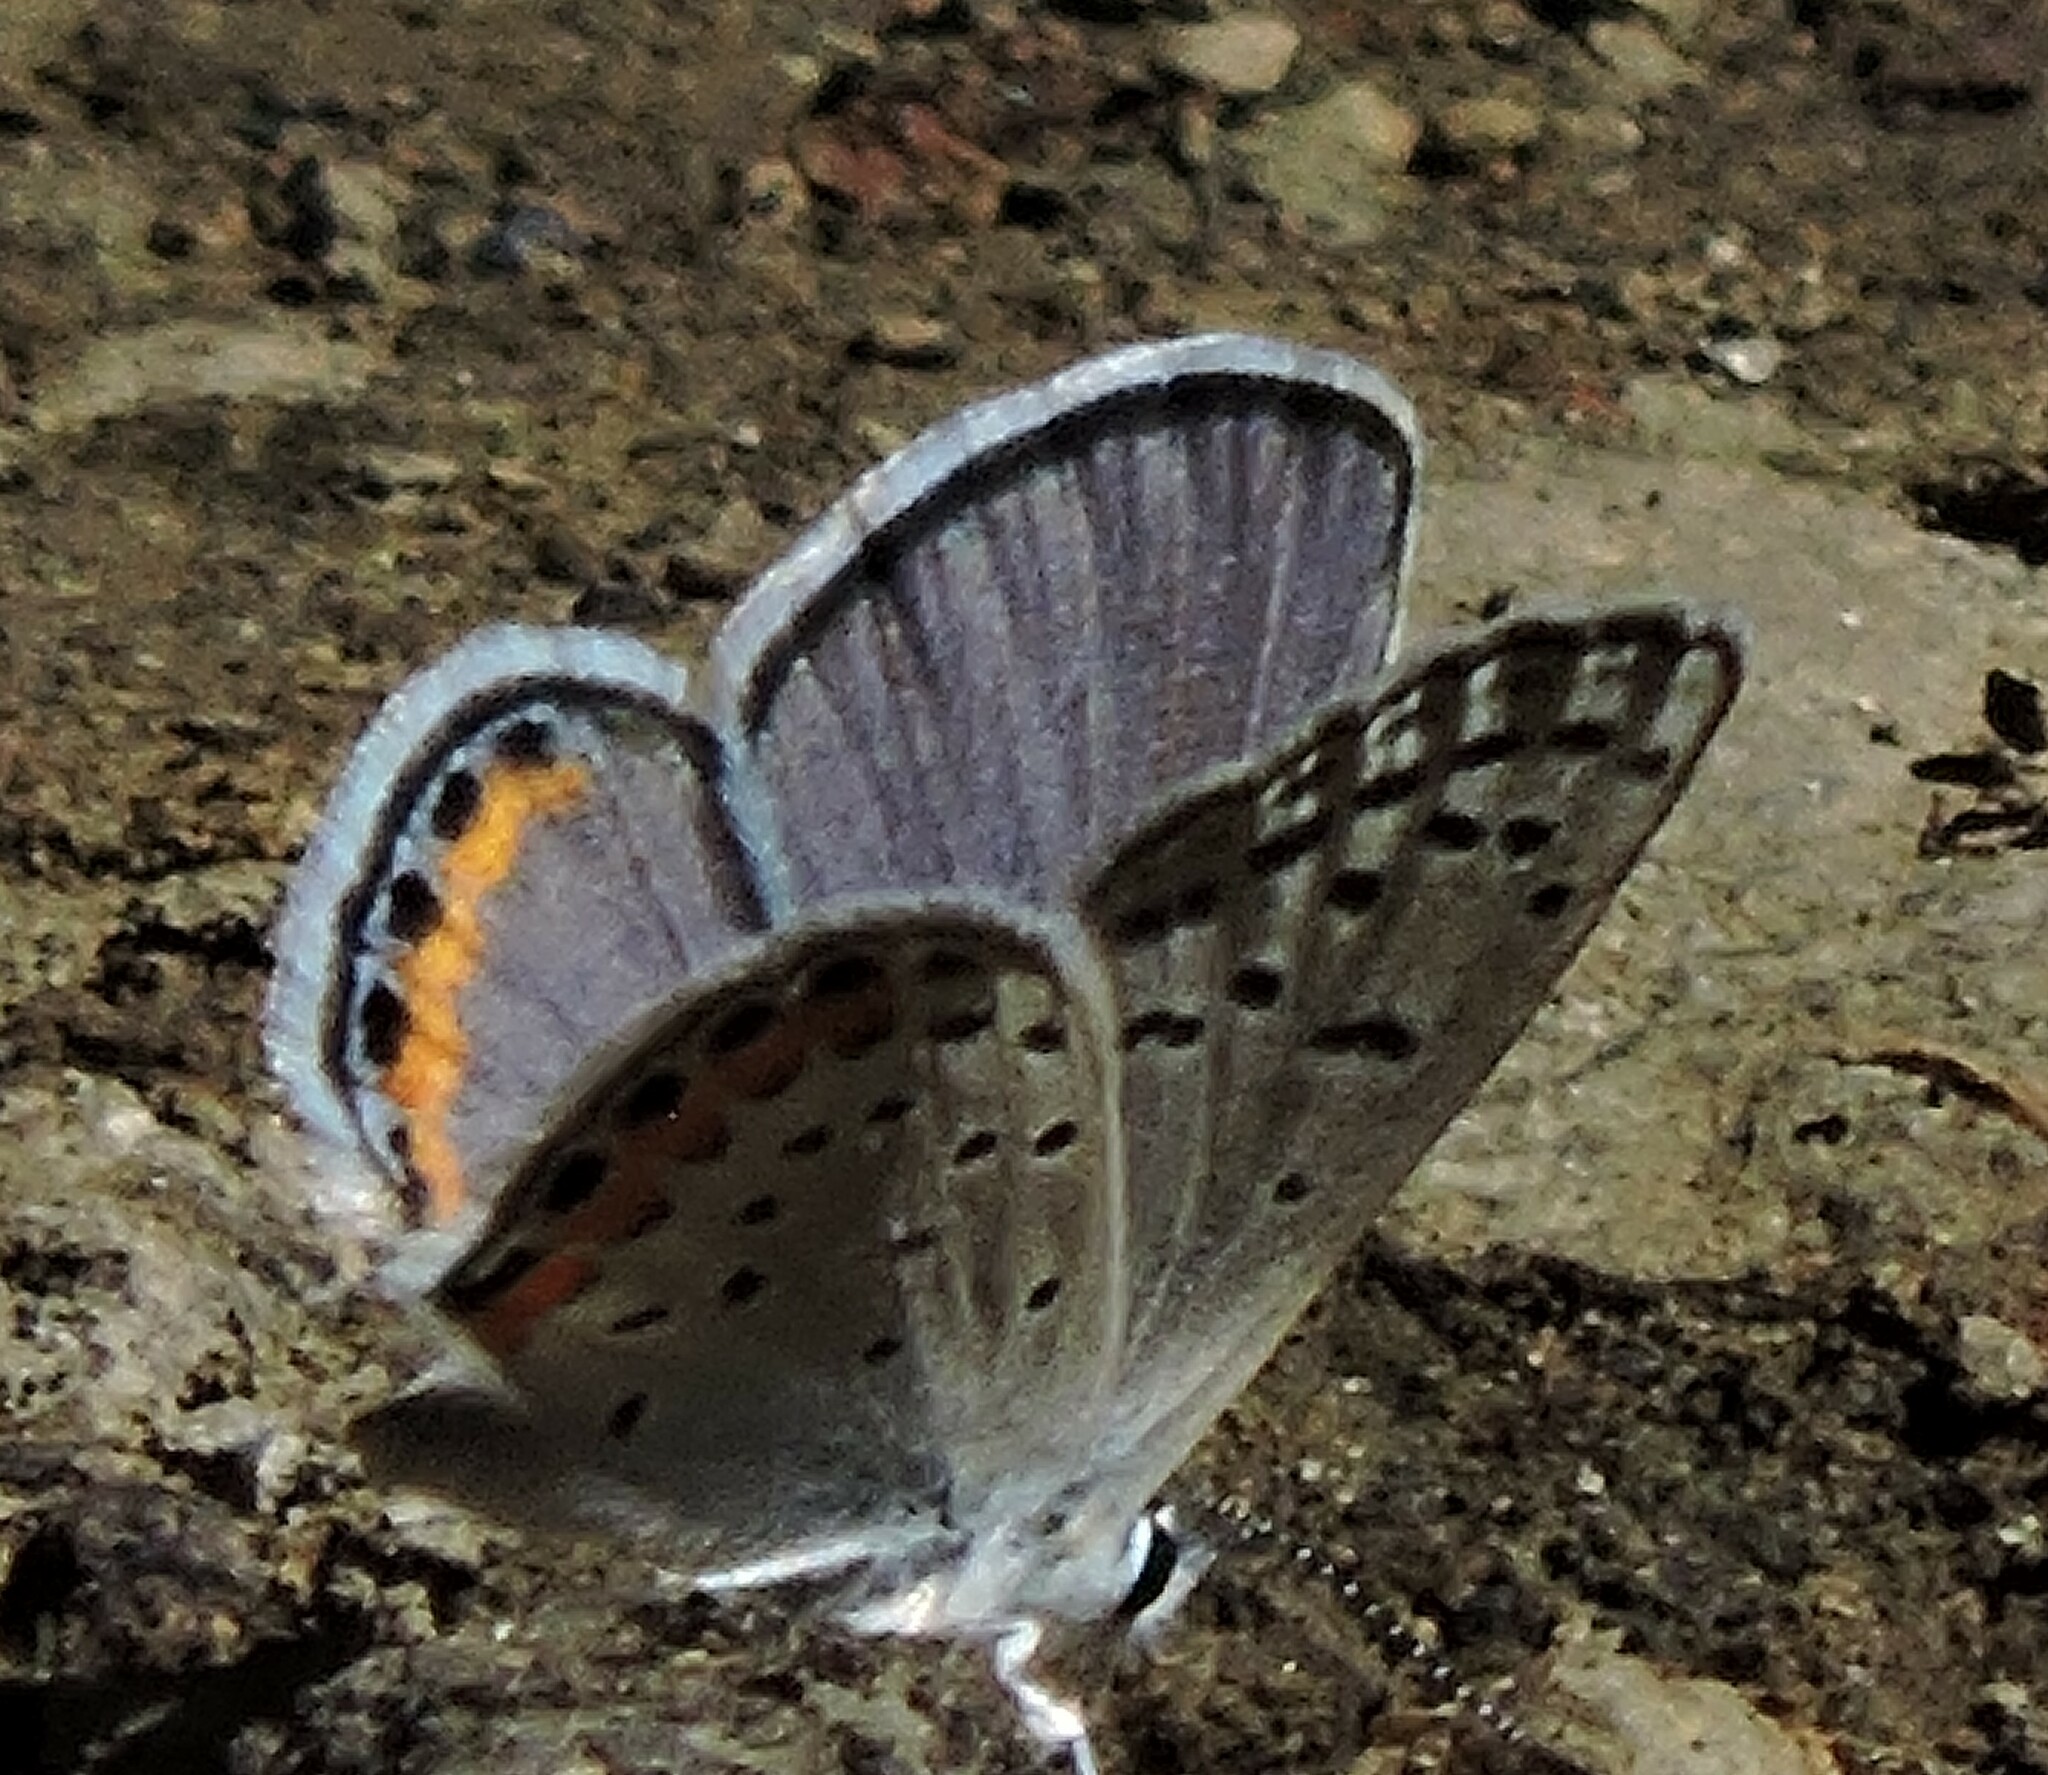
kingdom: Animalia
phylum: Arthropoda
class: Insecta
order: Lepidoptera
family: Lycaenidae
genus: Icaricia
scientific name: Icaricia acmon
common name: Acmon blue
